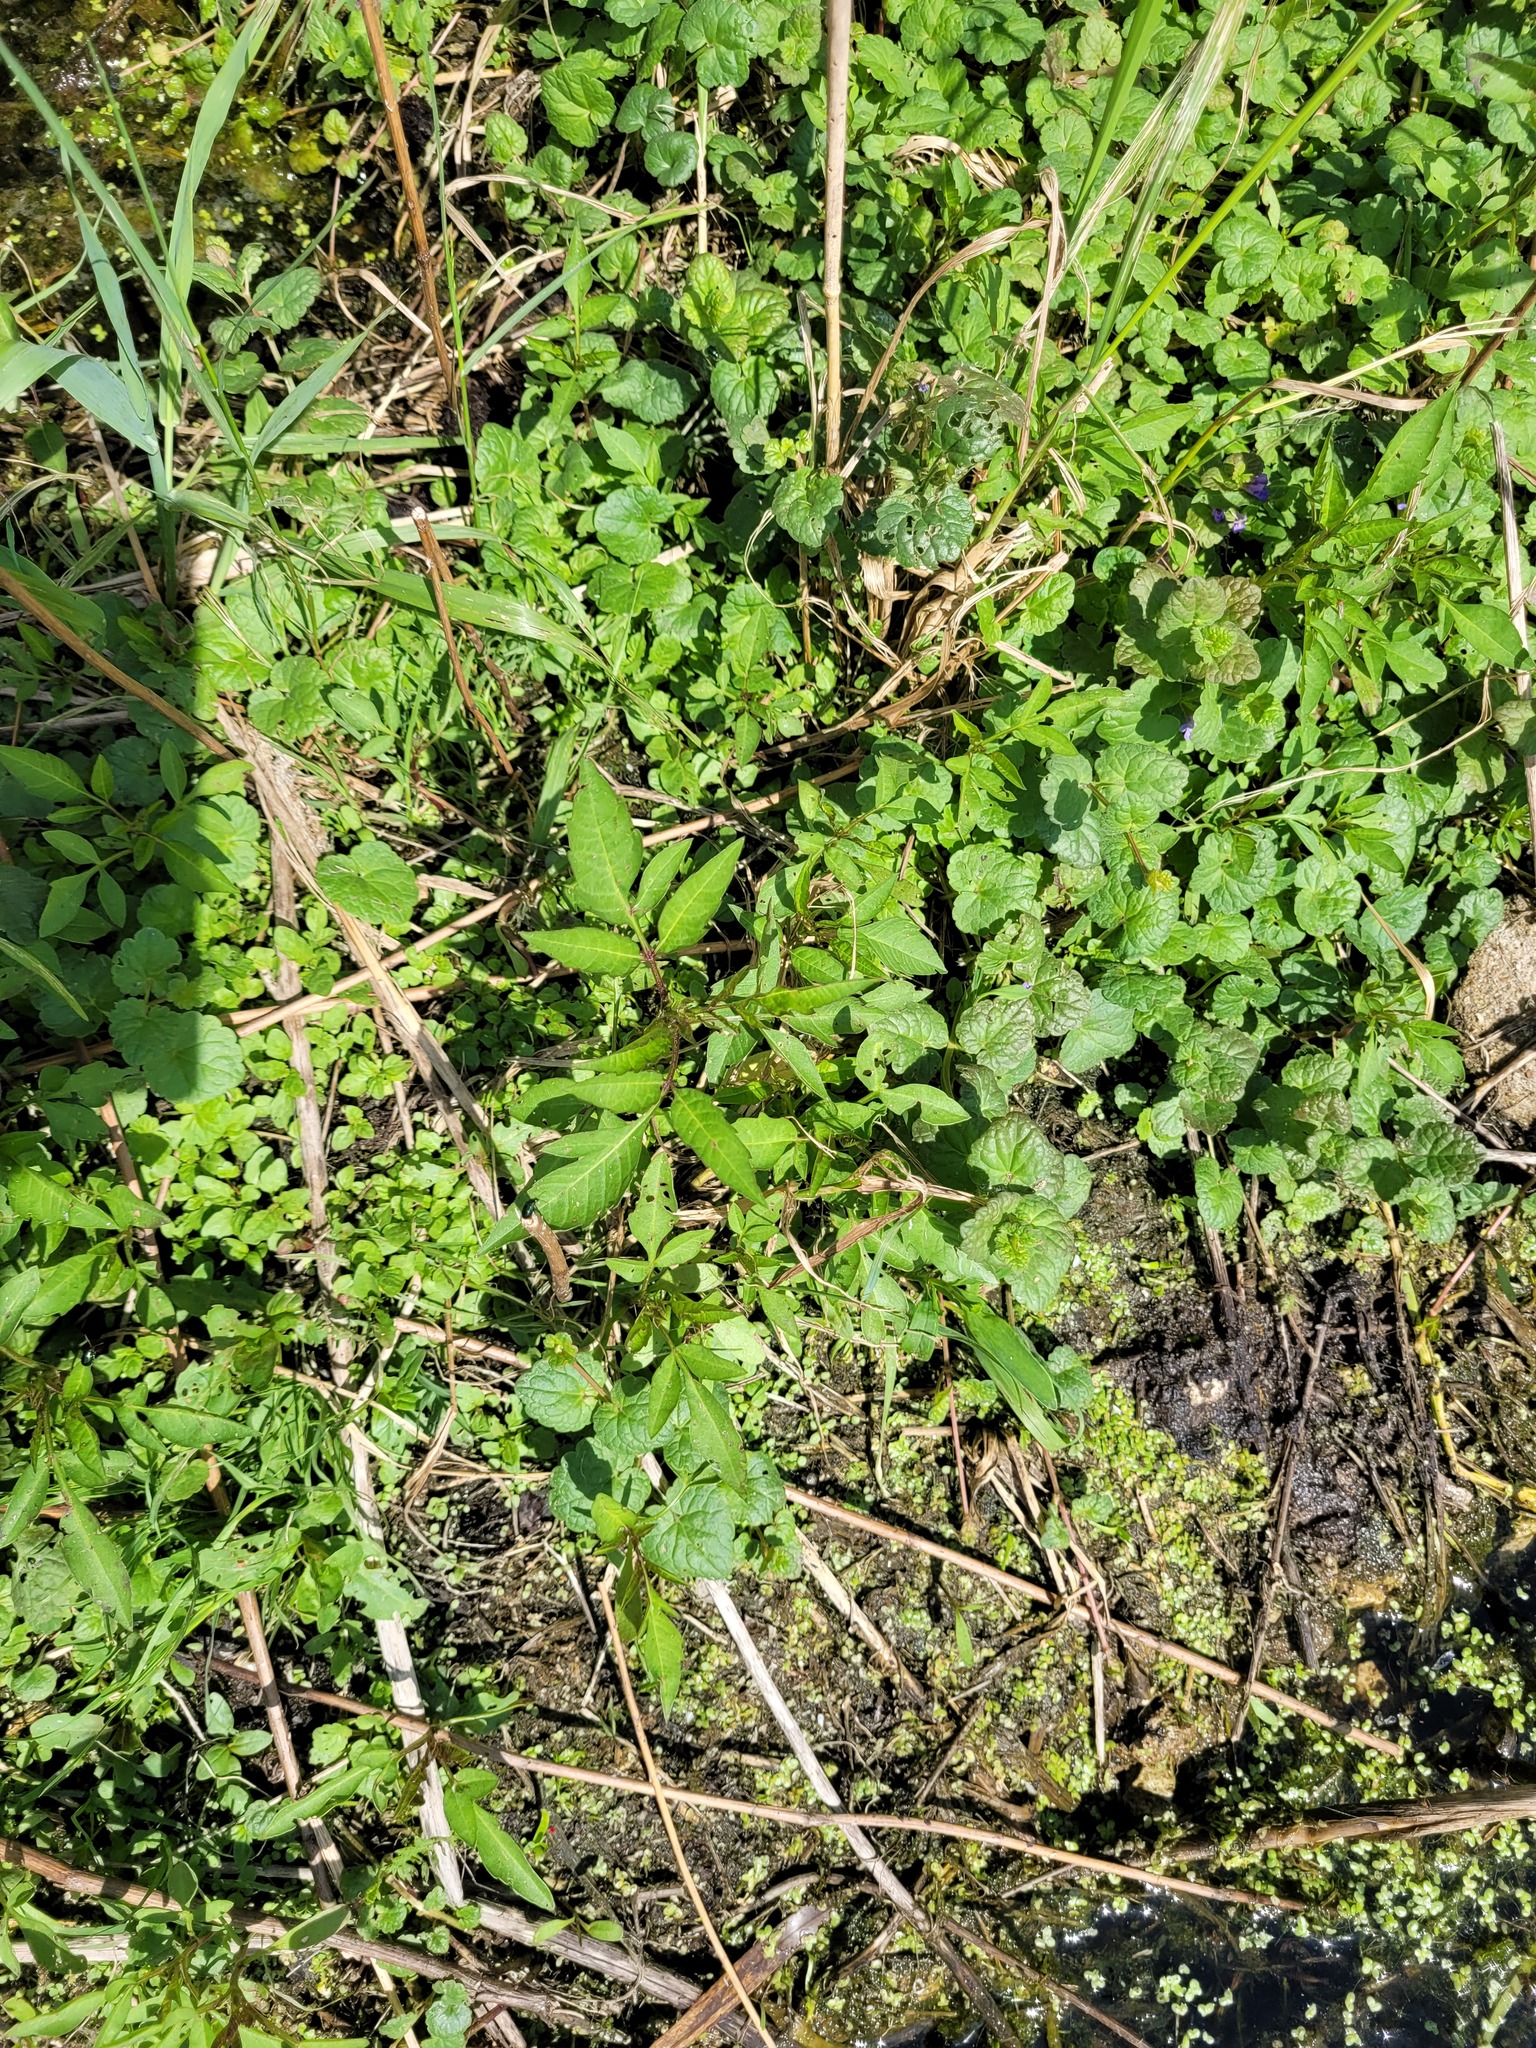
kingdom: Plantae
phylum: Tracheophyta
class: Magnoliopsida
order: Asterales
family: Asteraceae
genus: Bidens
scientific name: Bidens frondosa
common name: Beggarticks
